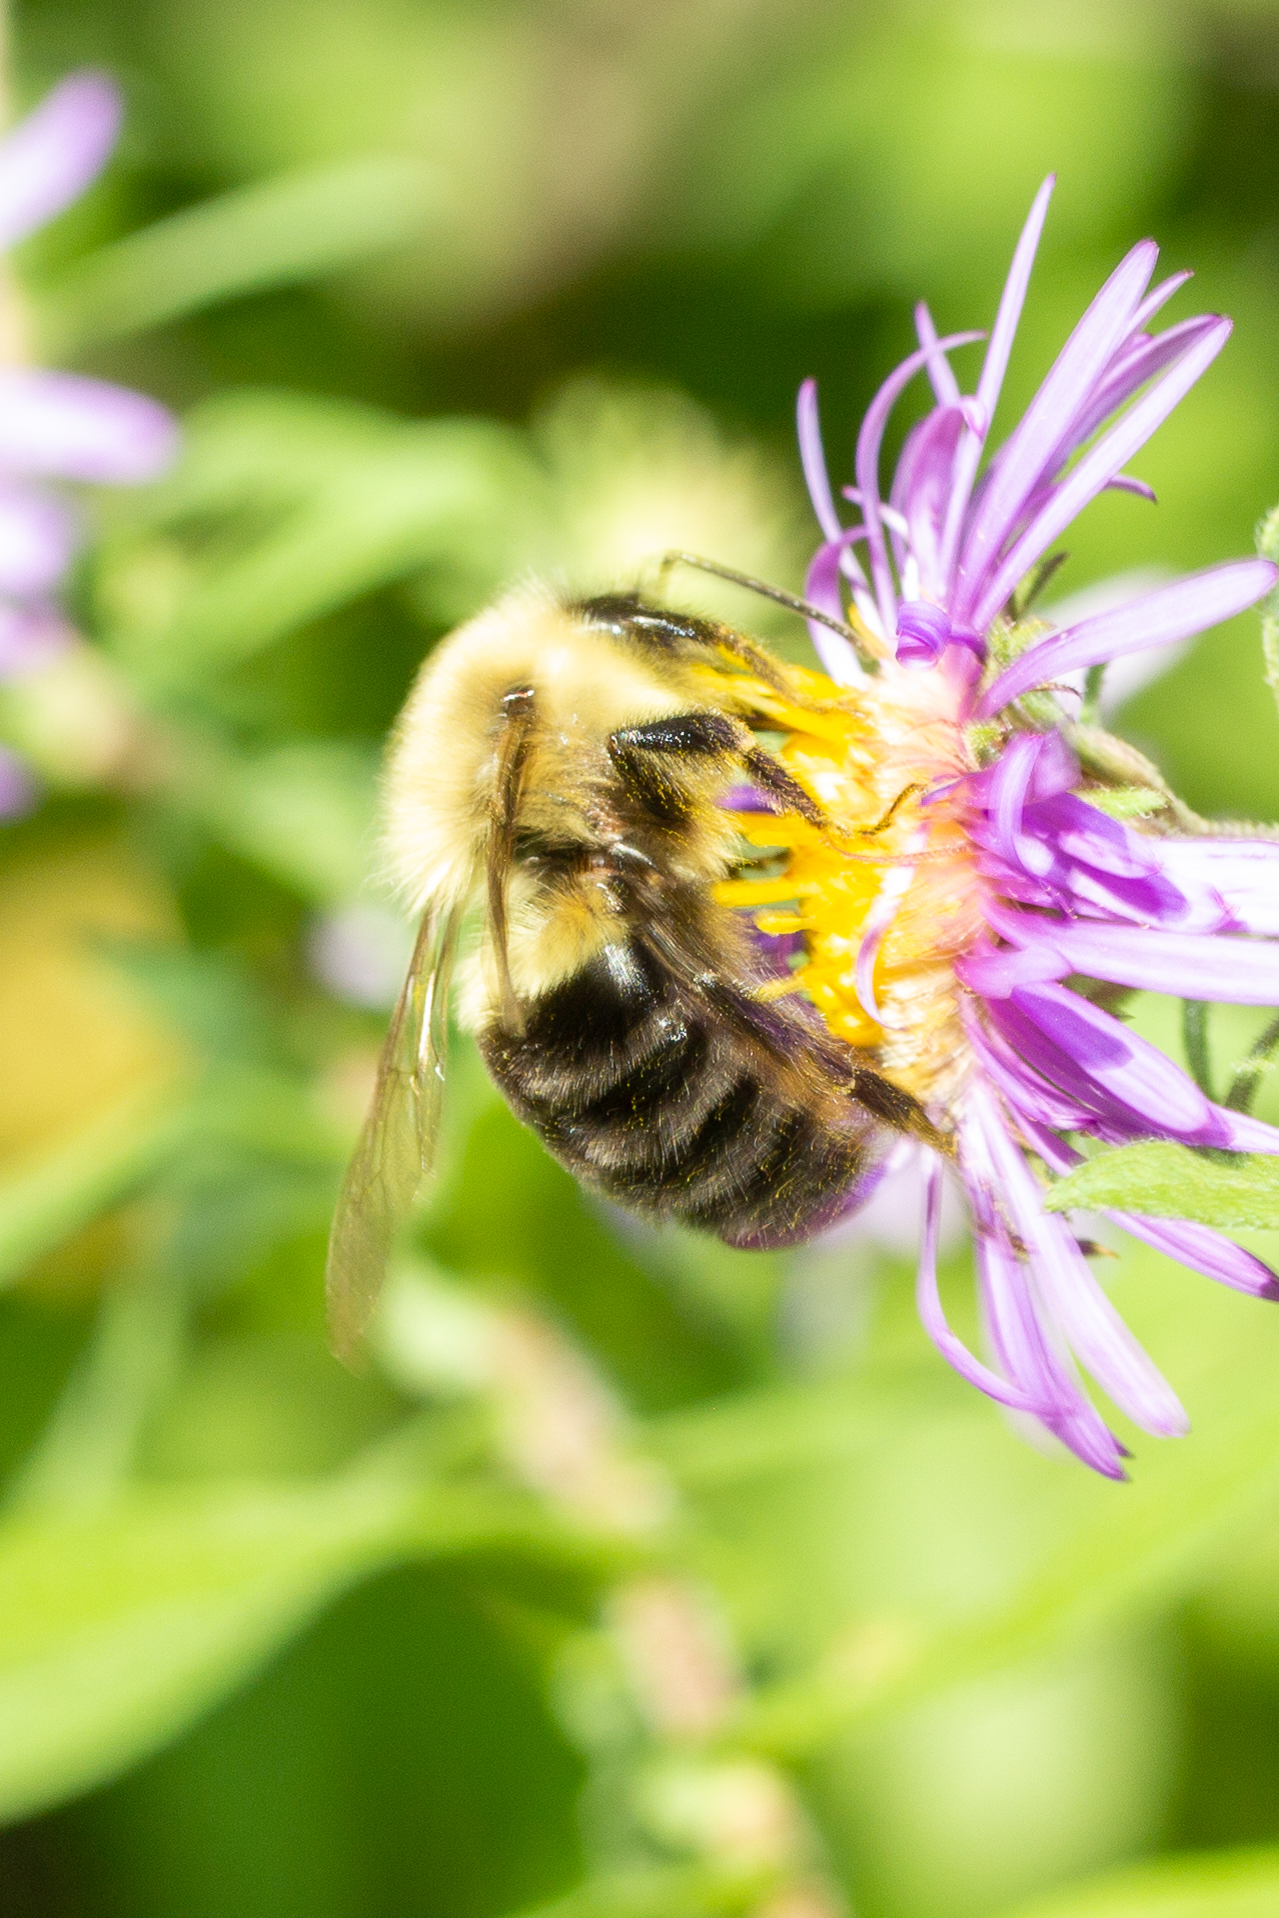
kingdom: Animalia
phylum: Arthropoda
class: Insecta
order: Hymenoptera
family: Apidae
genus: Bombus
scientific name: Bombus impatiens
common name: Common eastern bumble bee
